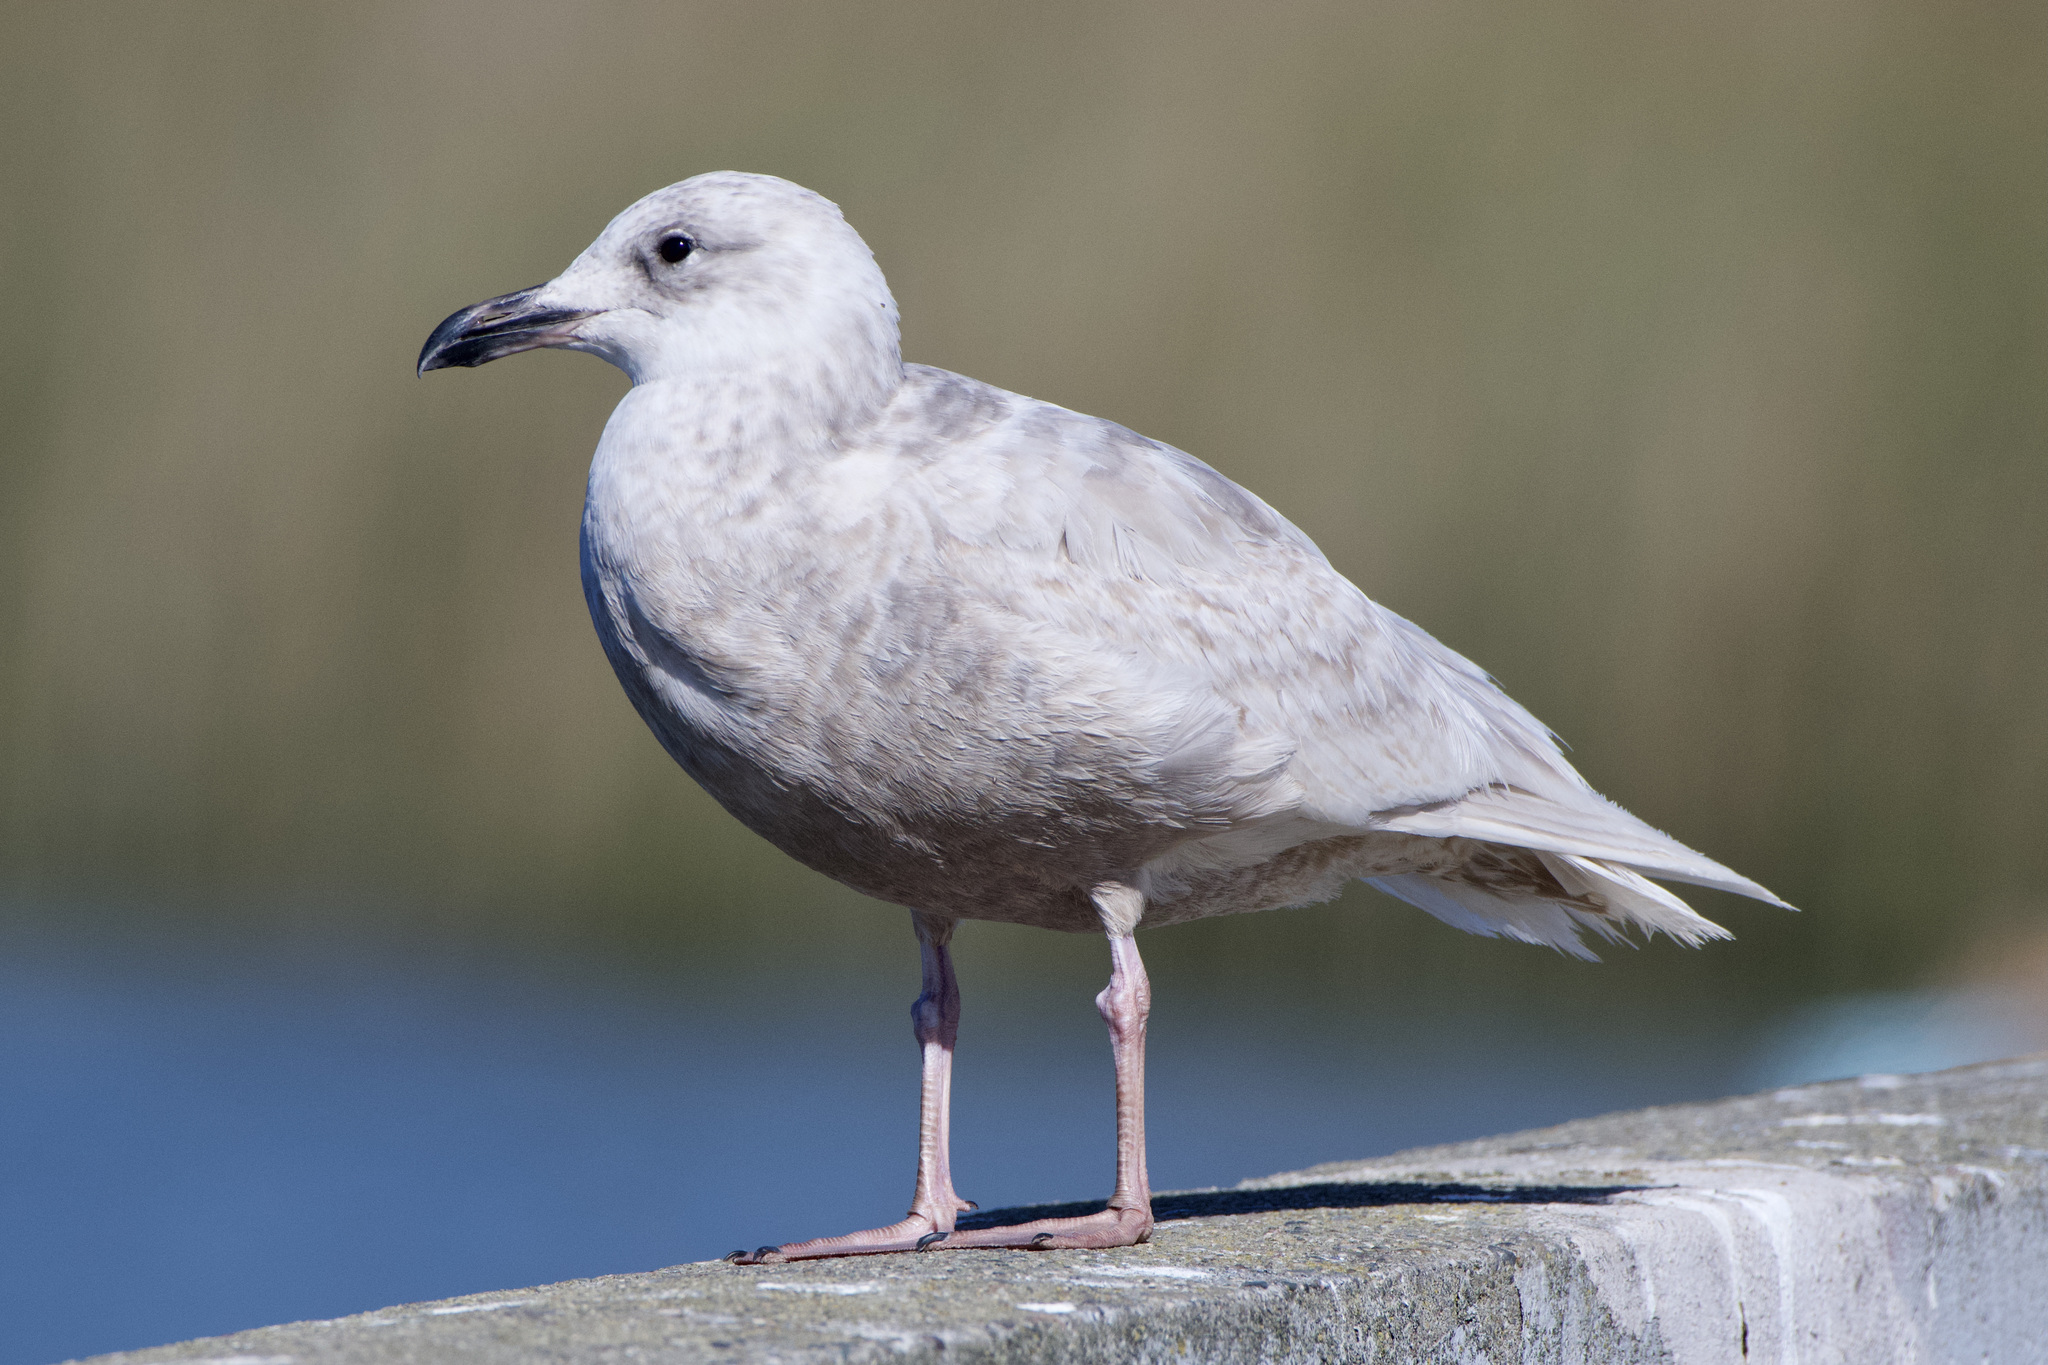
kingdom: Animalia
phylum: Chordata
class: Aves
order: Charadriiformes
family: Laridae
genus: Larus
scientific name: Larus glaucescens
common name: Glaucous-winged gull
